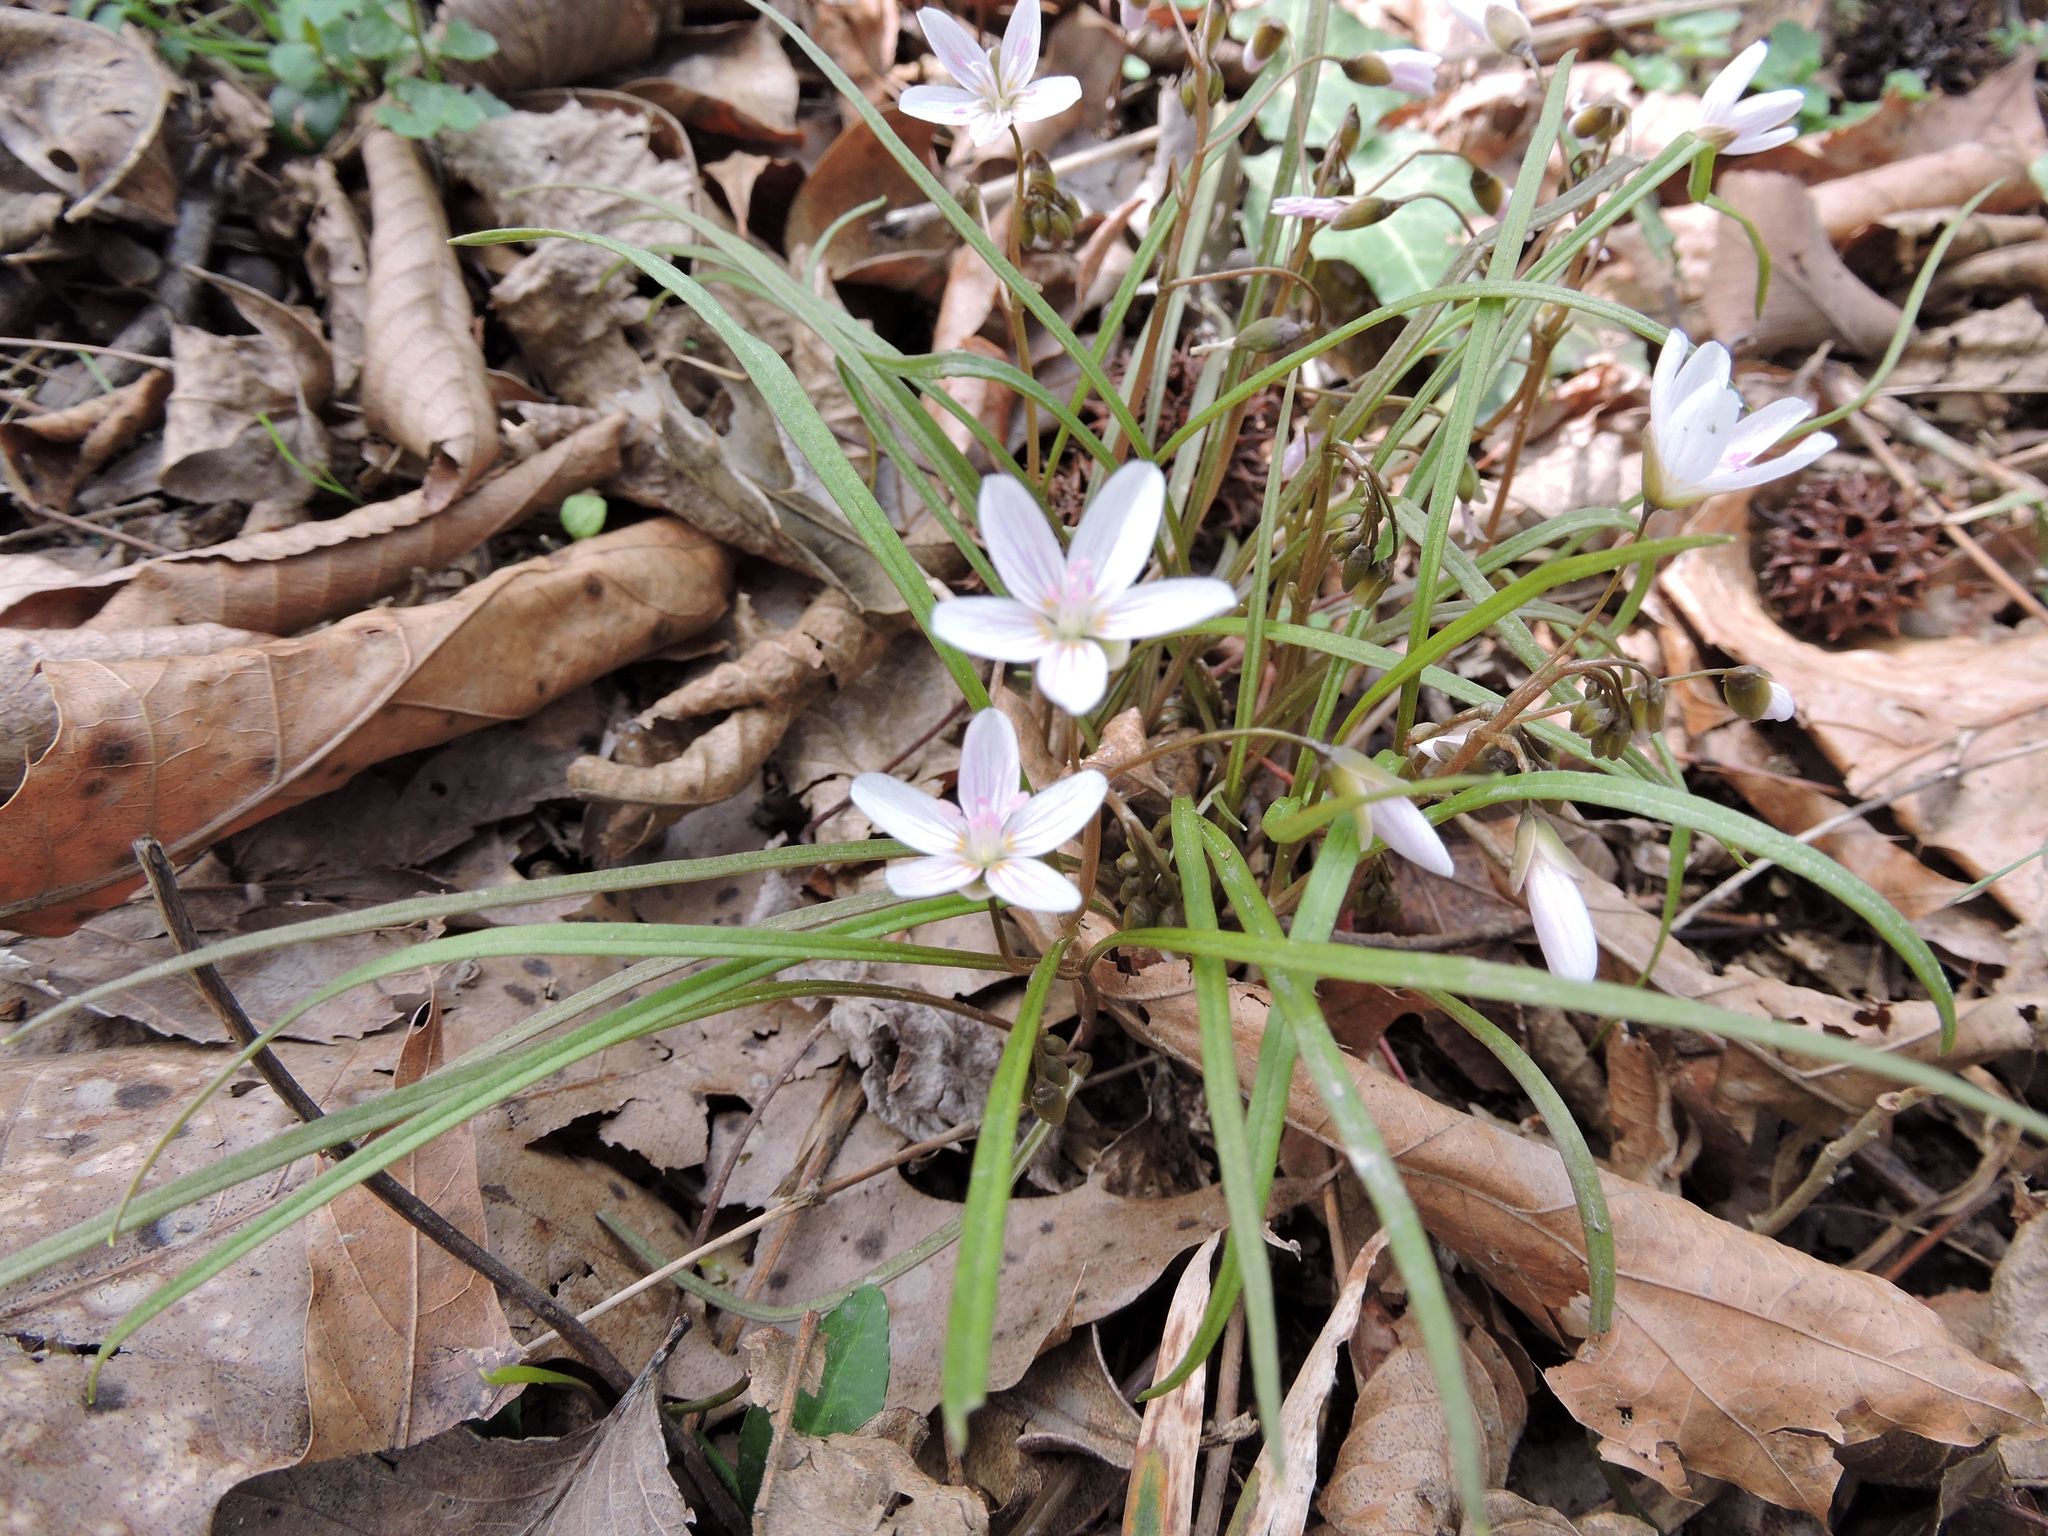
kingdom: Plantae
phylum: Tracheophyta
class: Magnoliopsida
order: Caryophyllales
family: Montiaceae
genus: Claytonia
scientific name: Claytonia virginica
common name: Virginia springbeauty
